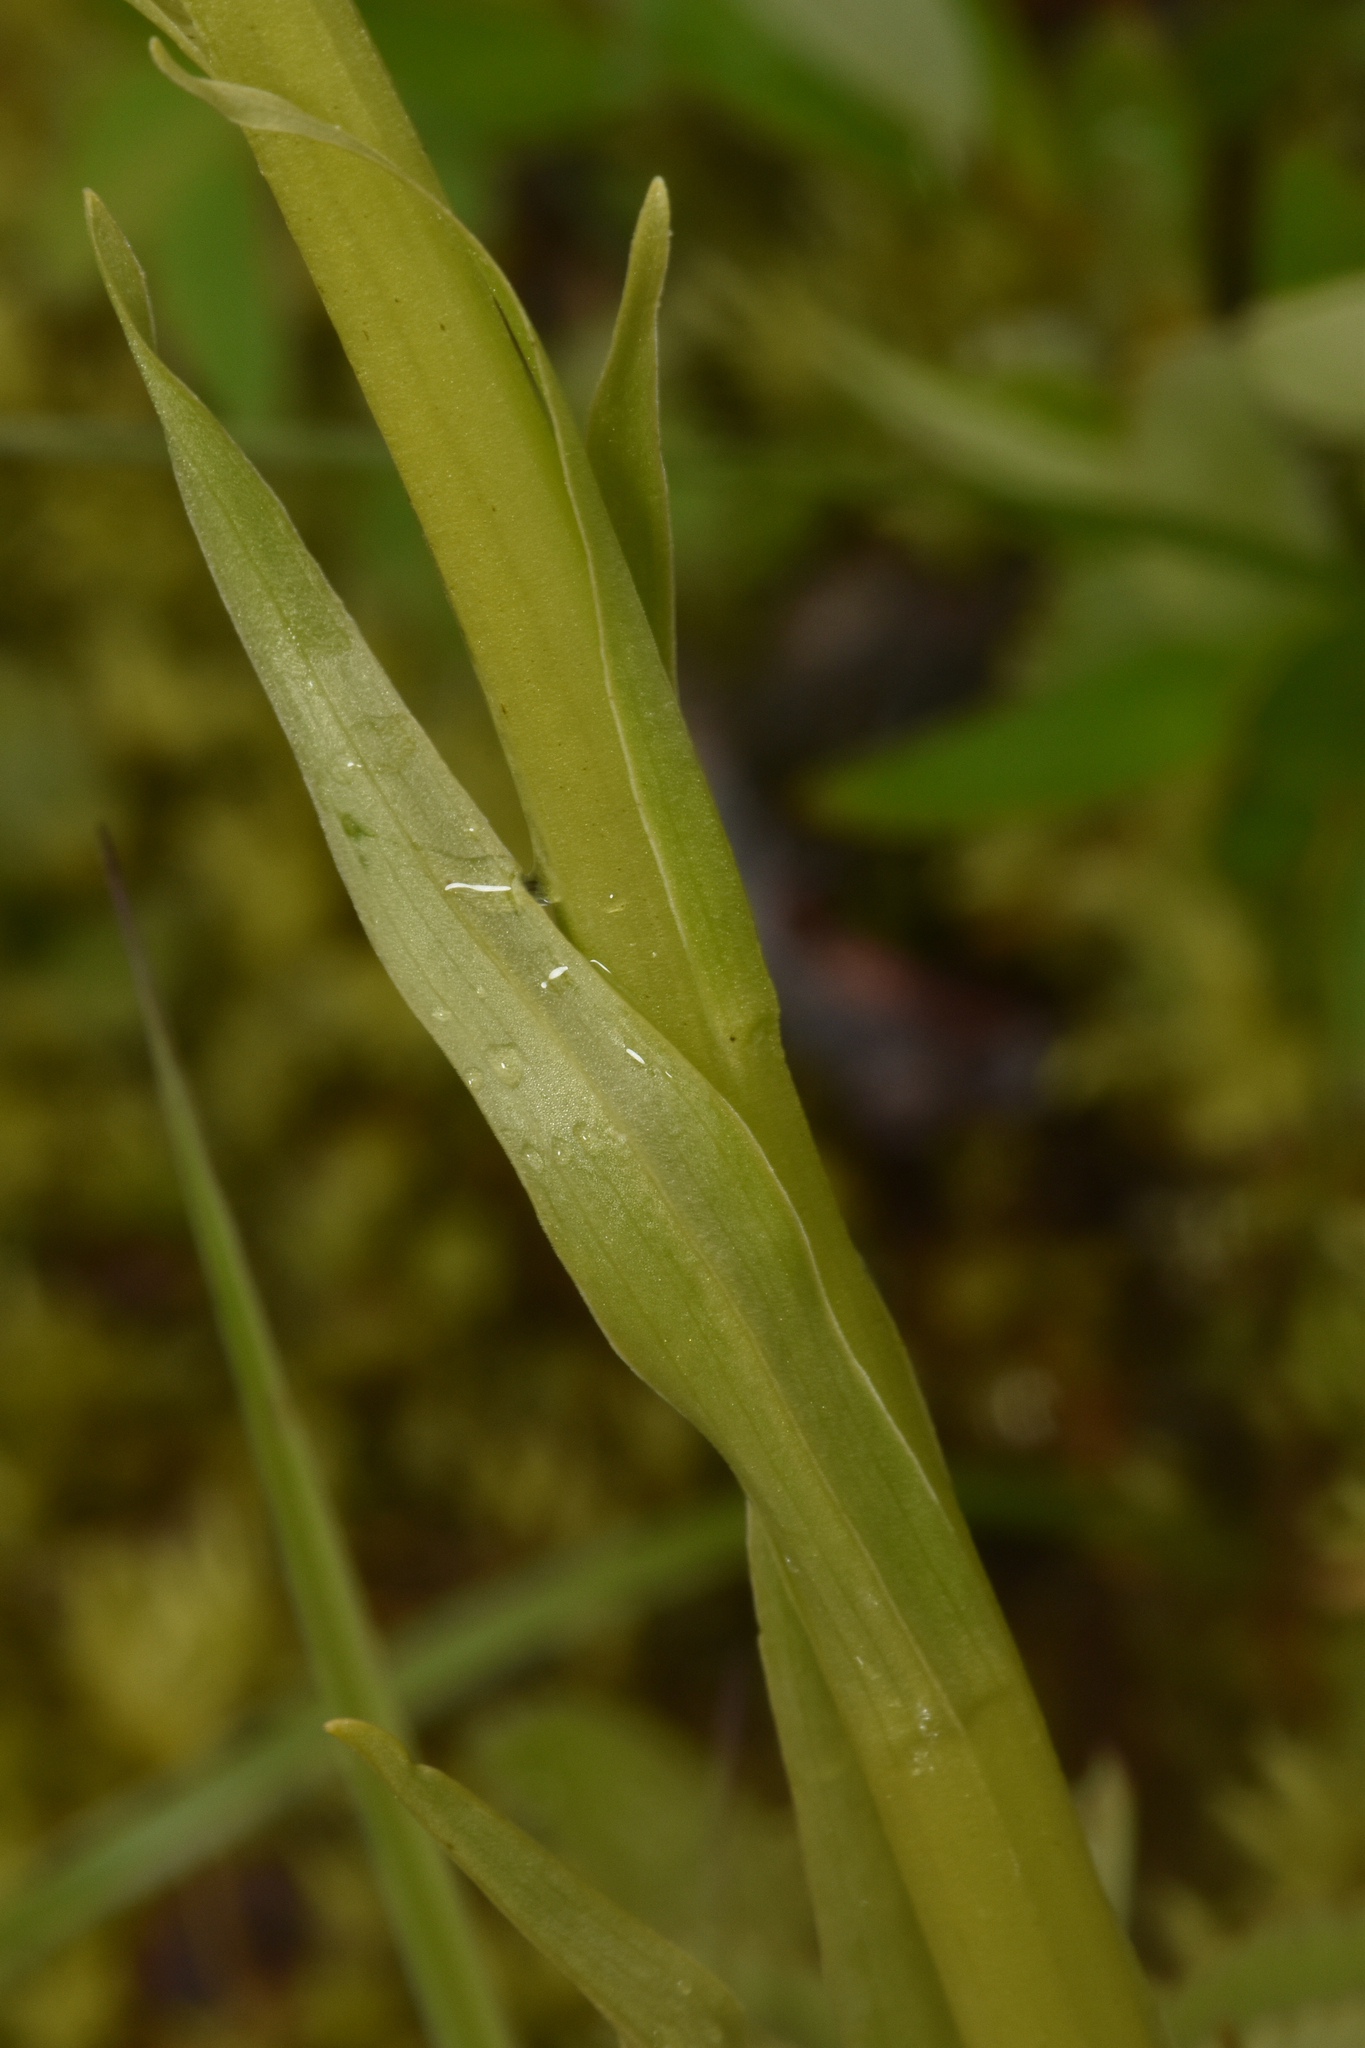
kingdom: Plantae
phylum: Tracheophyta
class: Liliopsida
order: Asparagales
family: Orchidaceae
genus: Platanthera
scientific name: Platanthera dilatata
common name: Bog candles
